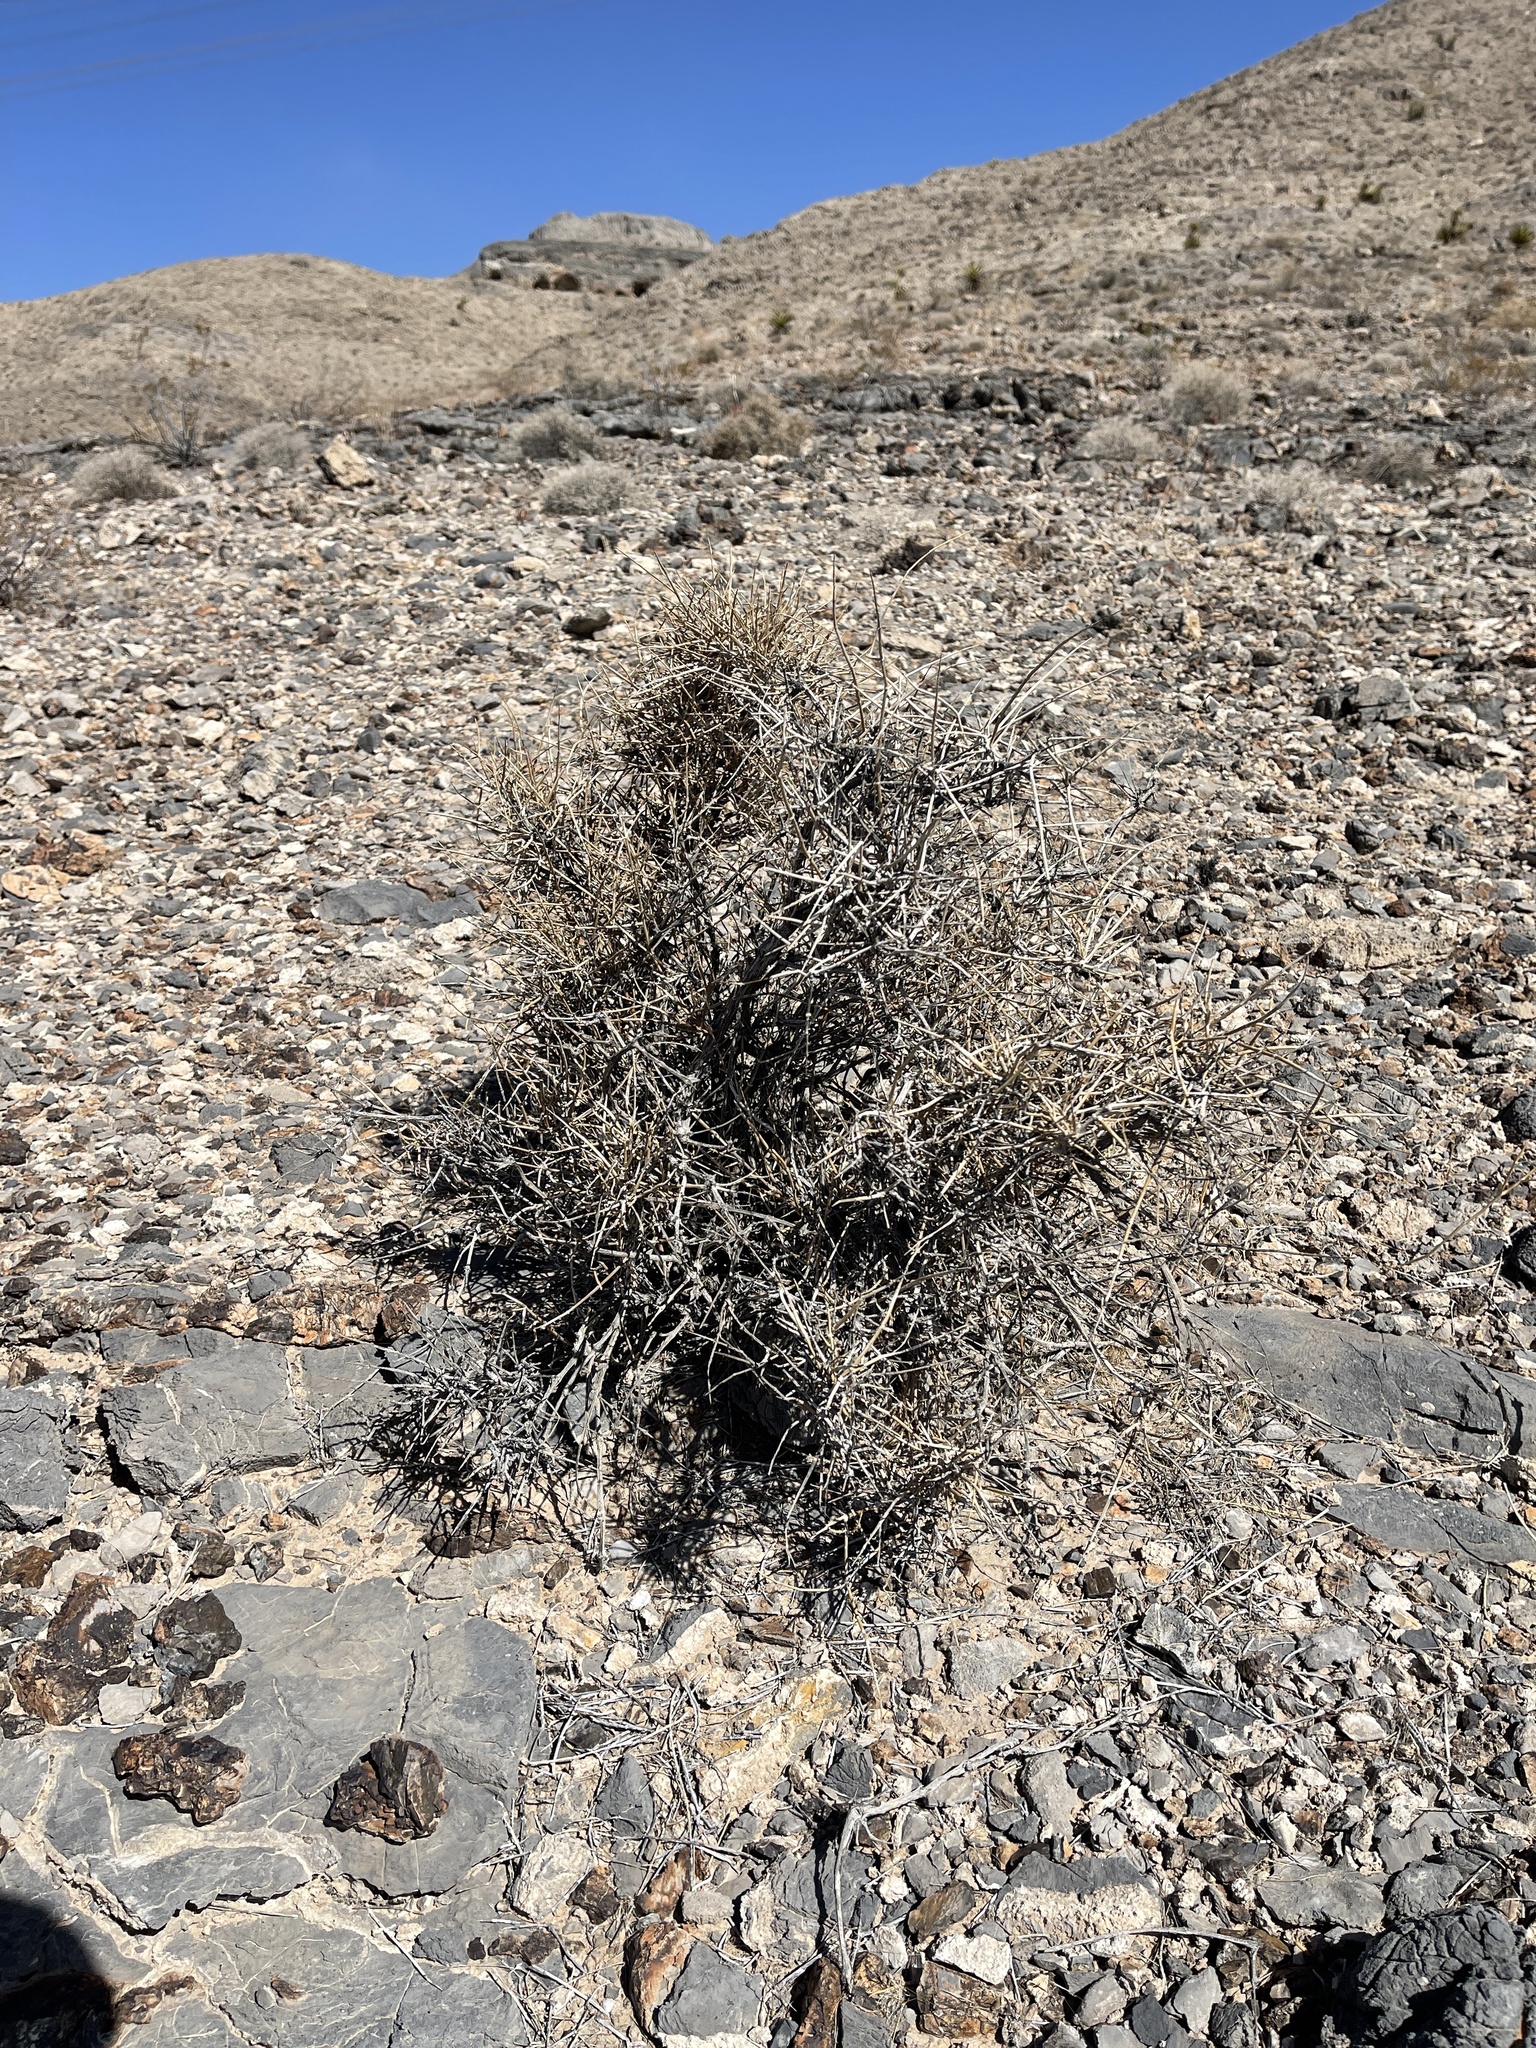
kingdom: Plantae
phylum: Tracheophyta
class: Gnetopsida
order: Ephedrales
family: Ephedraceae
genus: Ephedra
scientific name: Ephedra nevadensis
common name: Gray ephedra
